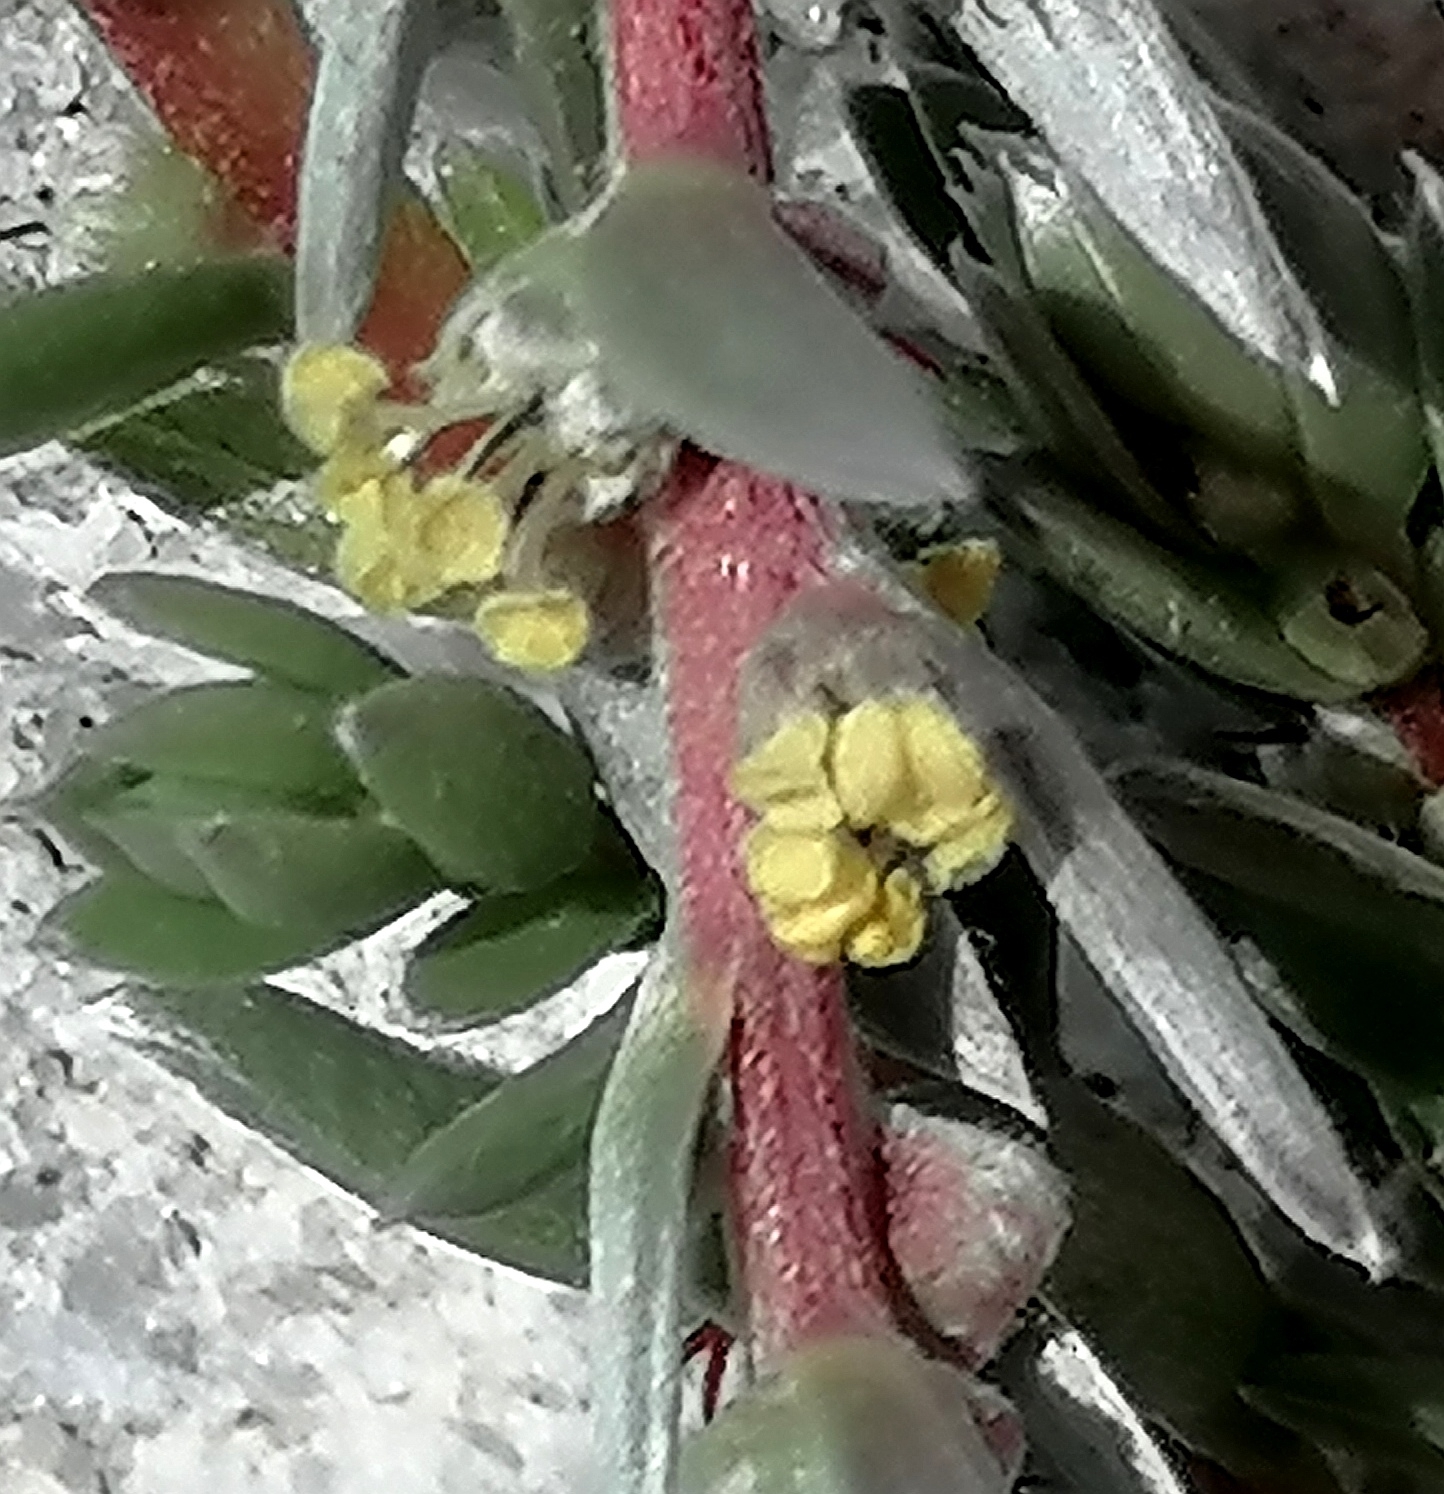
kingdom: Plantae
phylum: Tracheophyta
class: Magnoliopsida
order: Caryophyllales
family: Amaranthaceae
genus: Chenolea
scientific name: Chenolea diffusa
